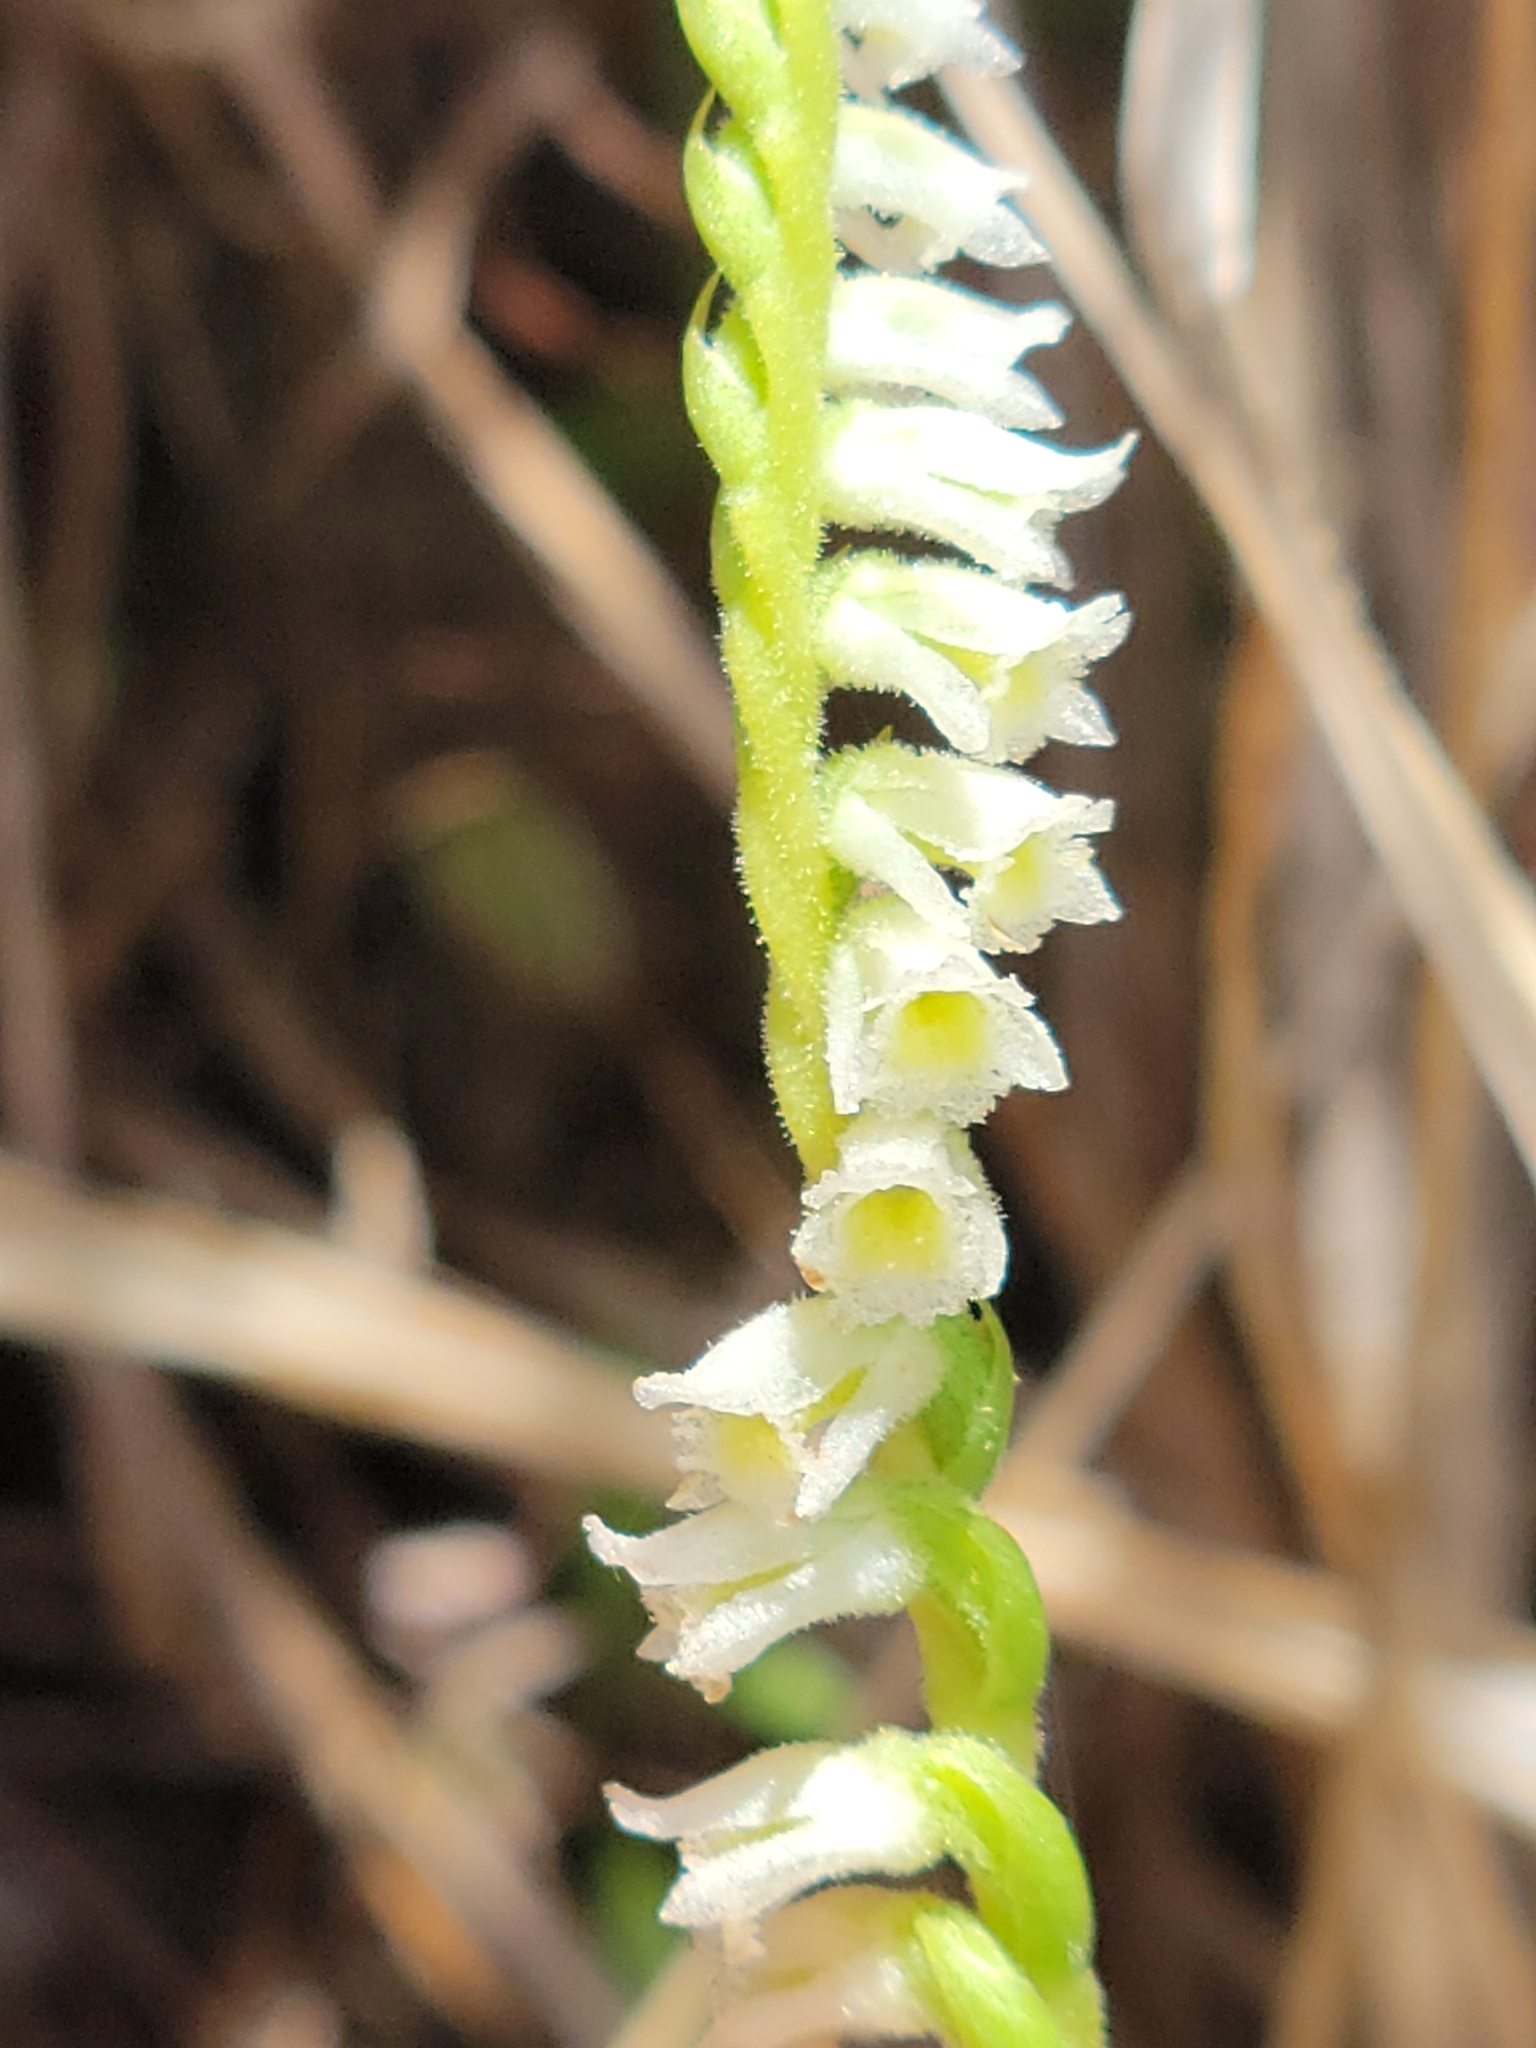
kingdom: Plantae
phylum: Tracheophyta
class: Liliopsida
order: Asparagales
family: Orchidaceae
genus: Spiranthes
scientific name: Spiranthes brevilabris
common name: Texas ladies'-tresses
